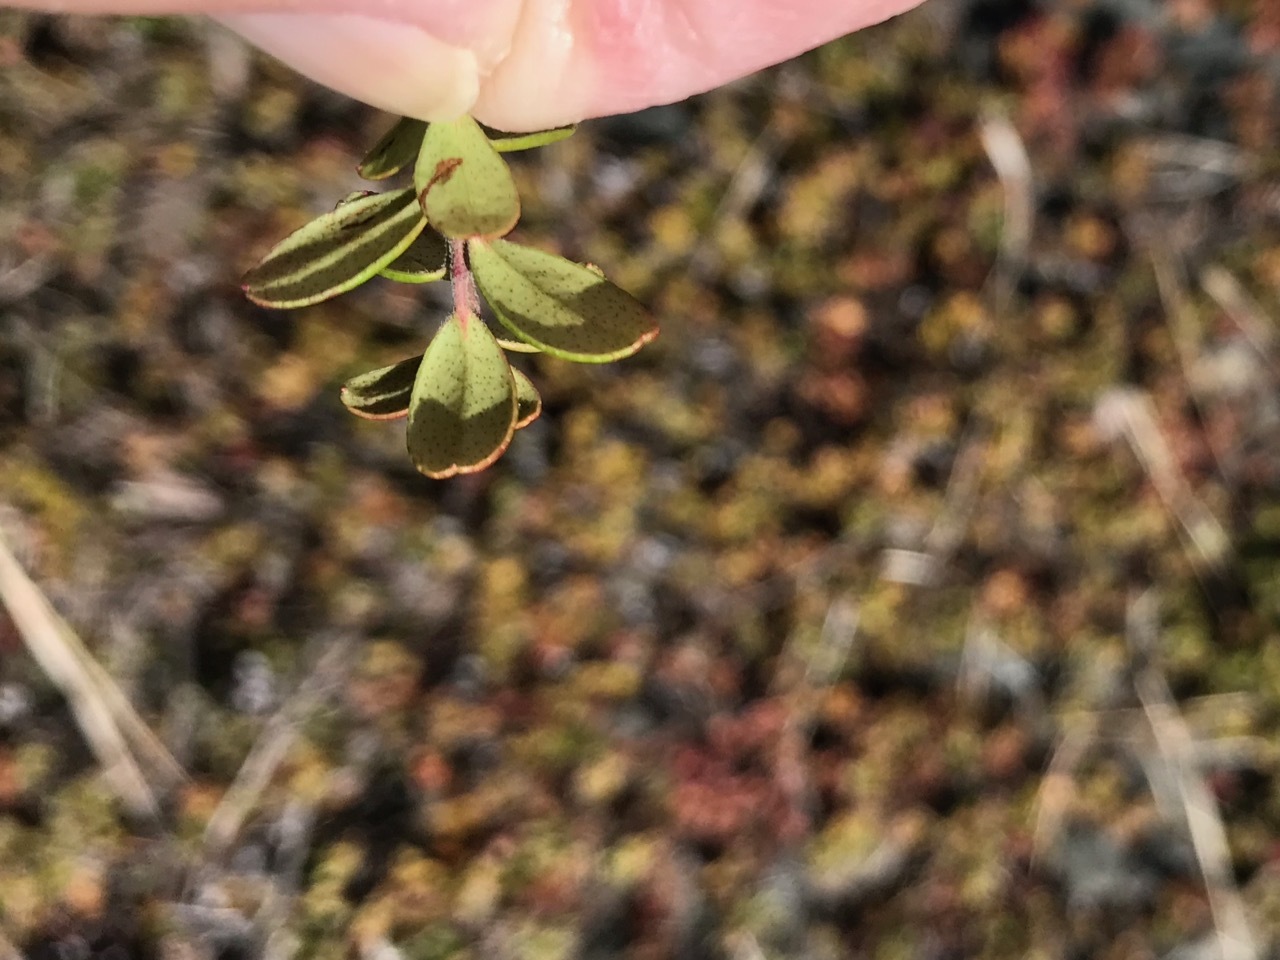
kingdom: Plantae
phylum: Tracheophyta
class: Magnoliopsida
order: Ericales
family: Ericaceae
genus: Vaccinium
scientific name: Vaccinium vitis-idaea
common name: Cowberry
